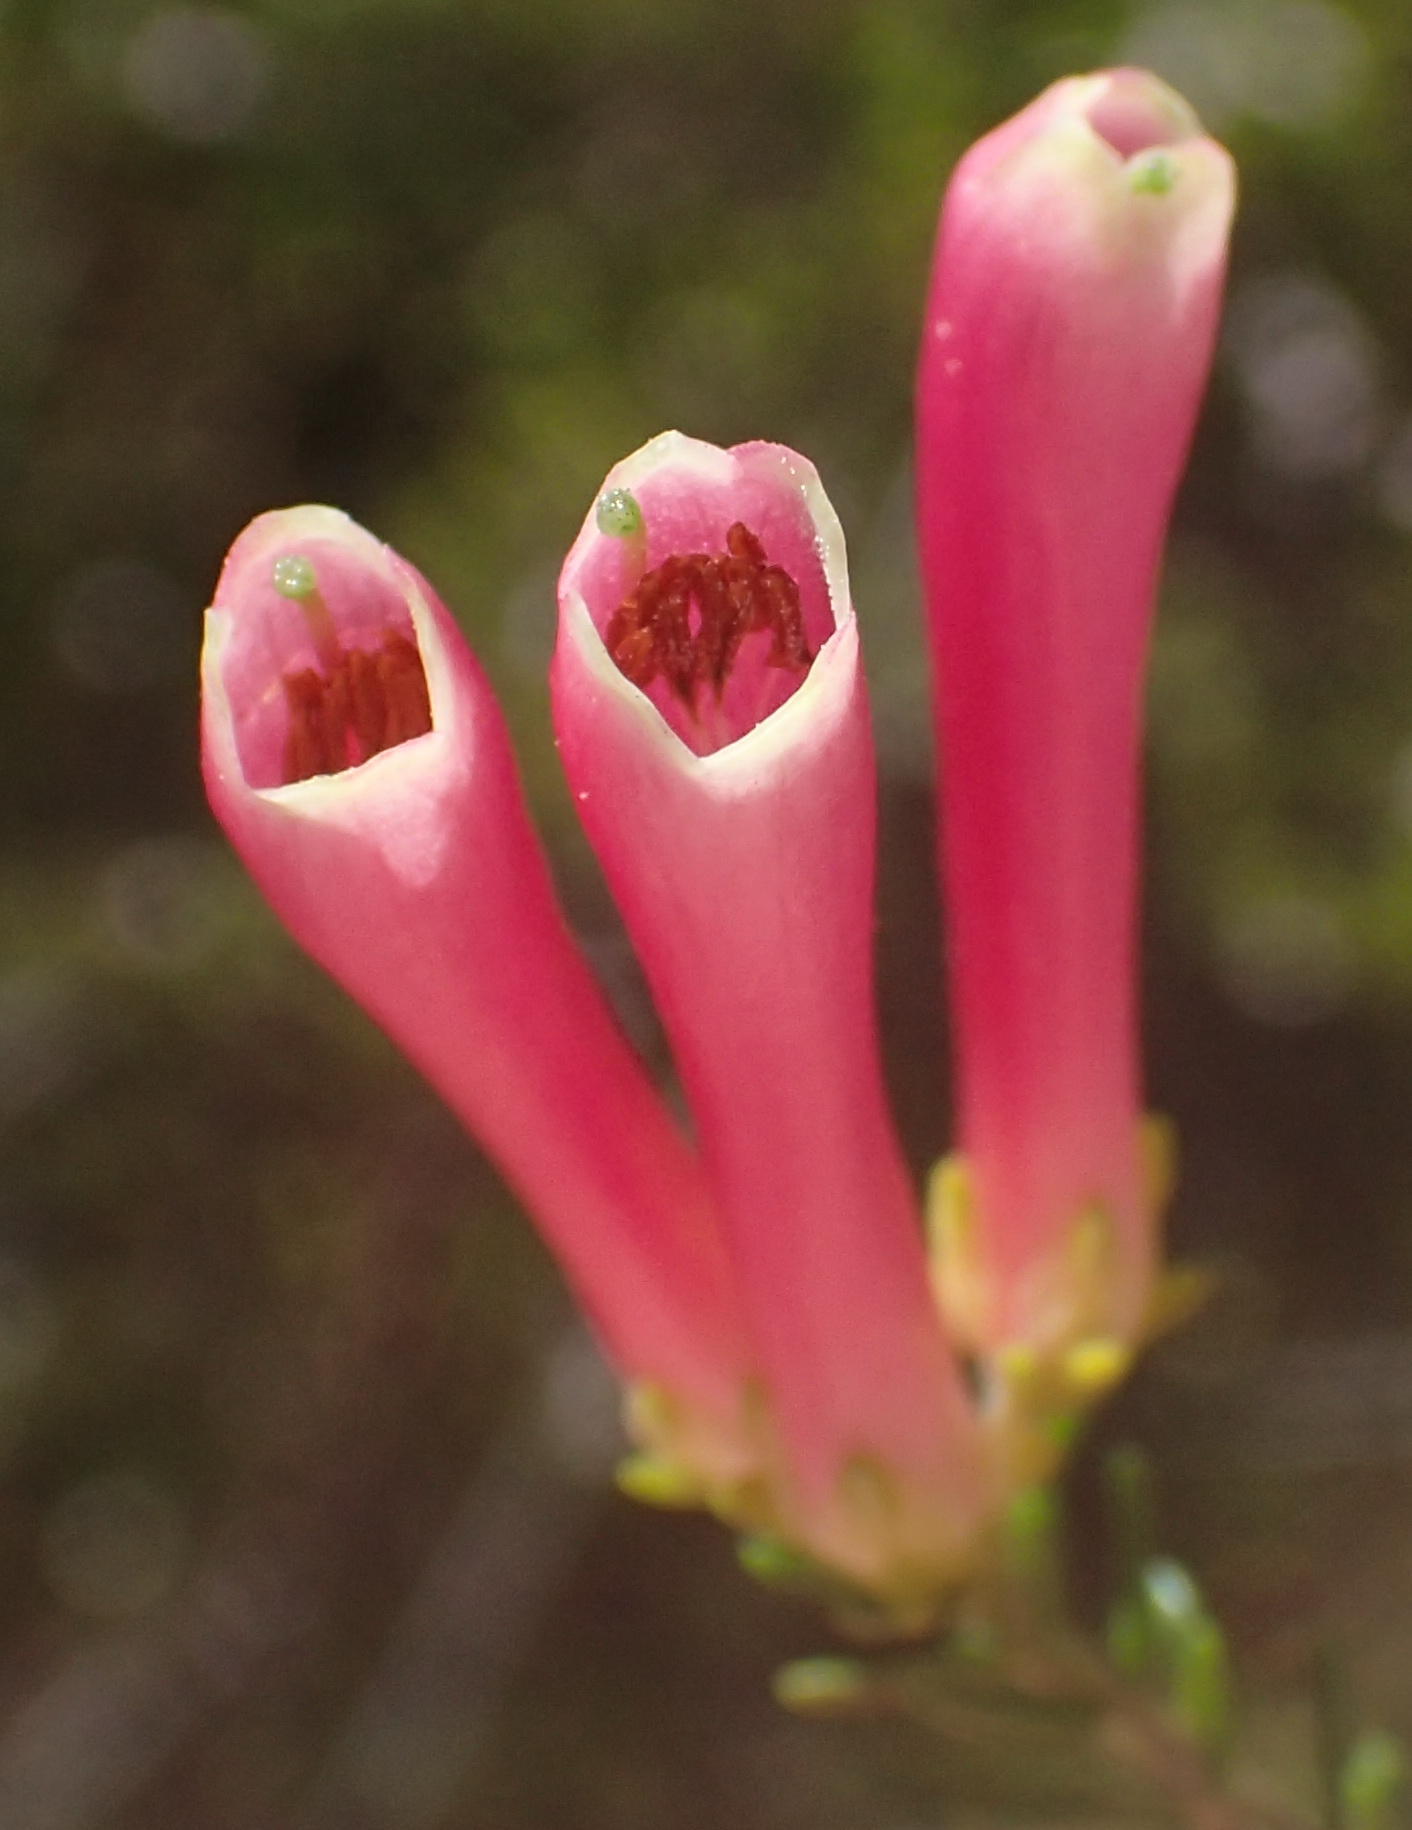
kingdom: Plantae
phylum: Tracheophyta
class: Magnoliopsida
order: Ericales
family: Ericaceae
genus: Erica
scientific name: Erica versicolor
